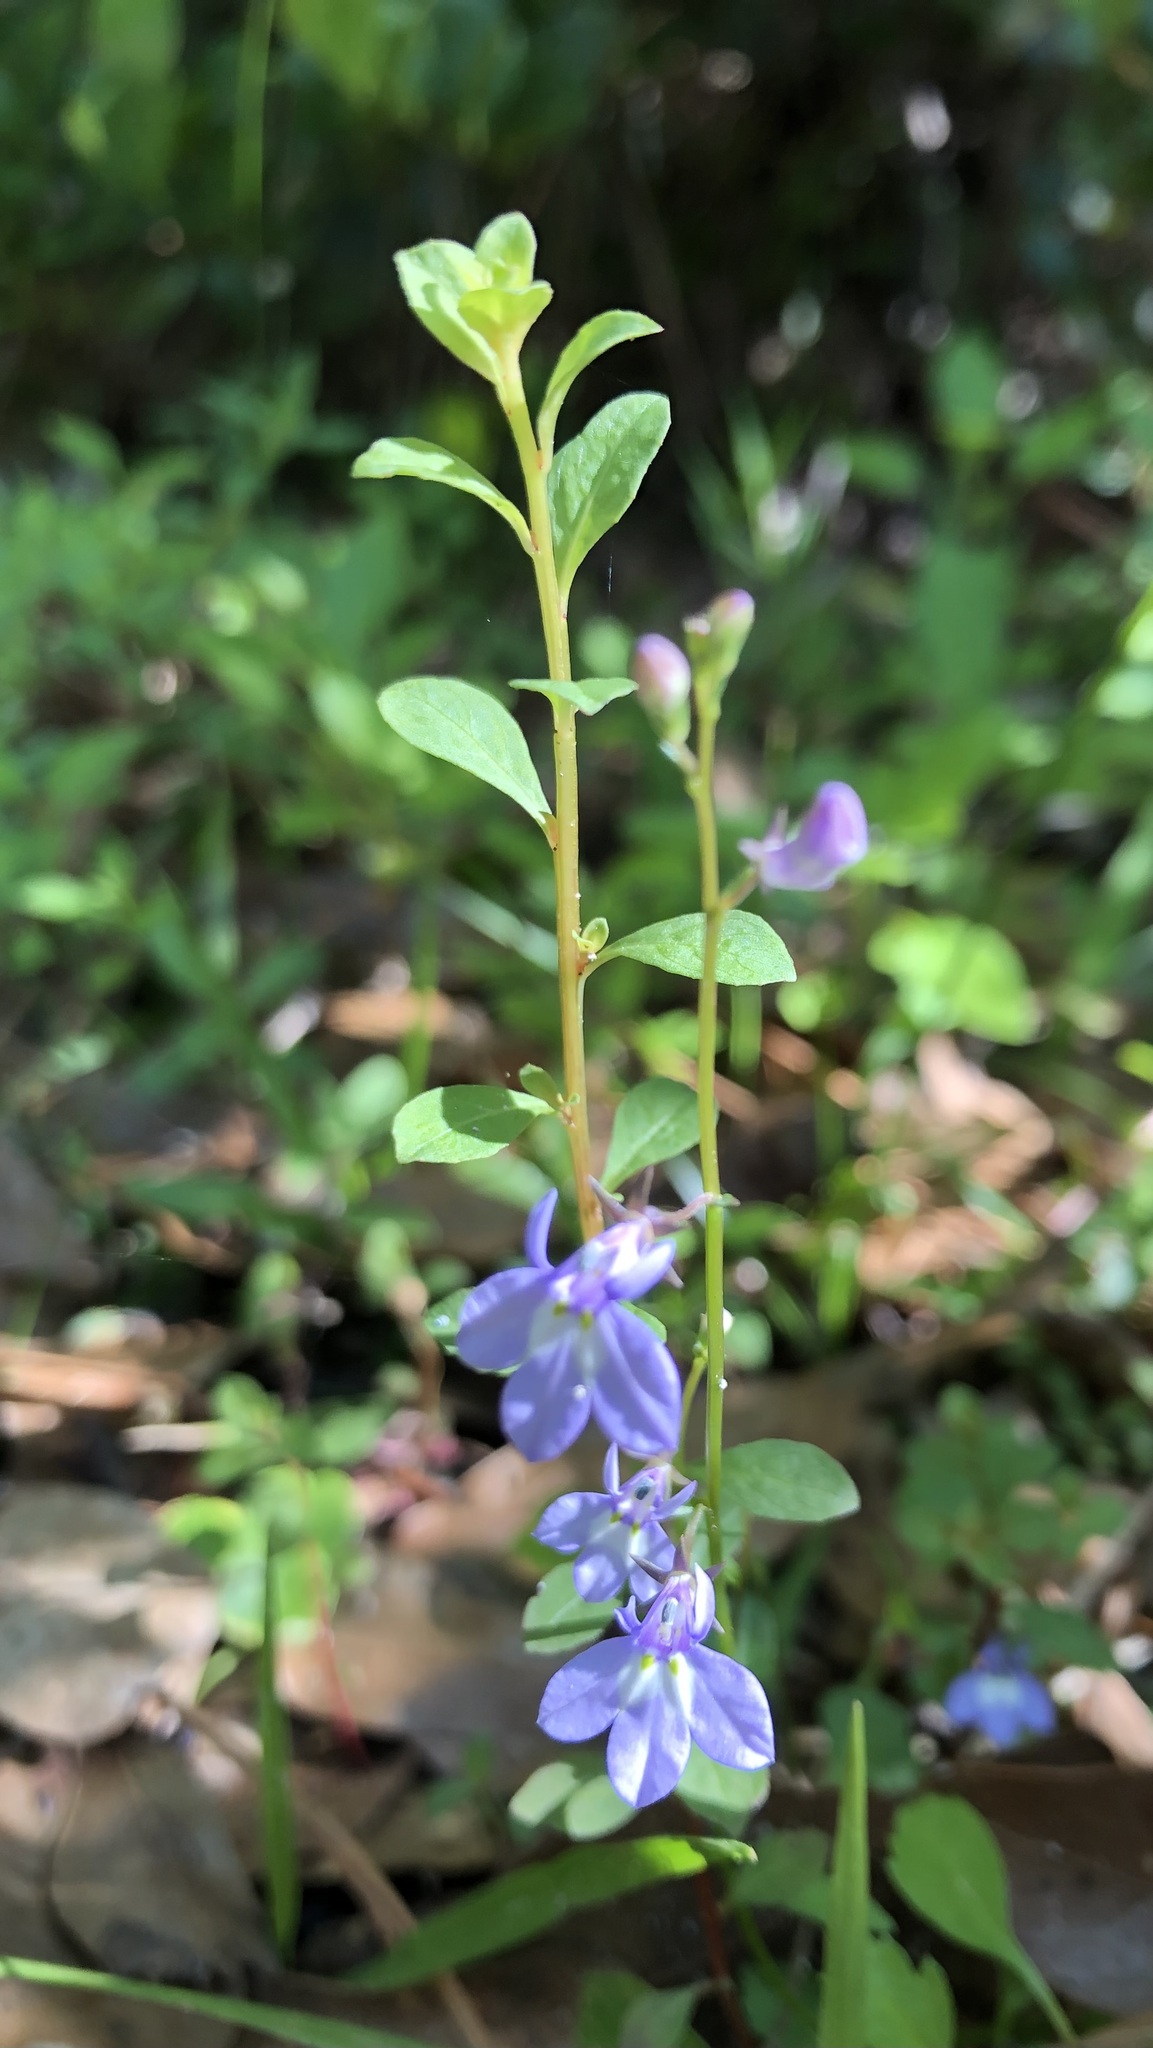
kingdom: Plantae
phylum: Tracheophyta
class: Magnoliopsida
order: Asterales
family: Campanulaceae
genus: Lobelia
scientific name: Lobelia feayana
